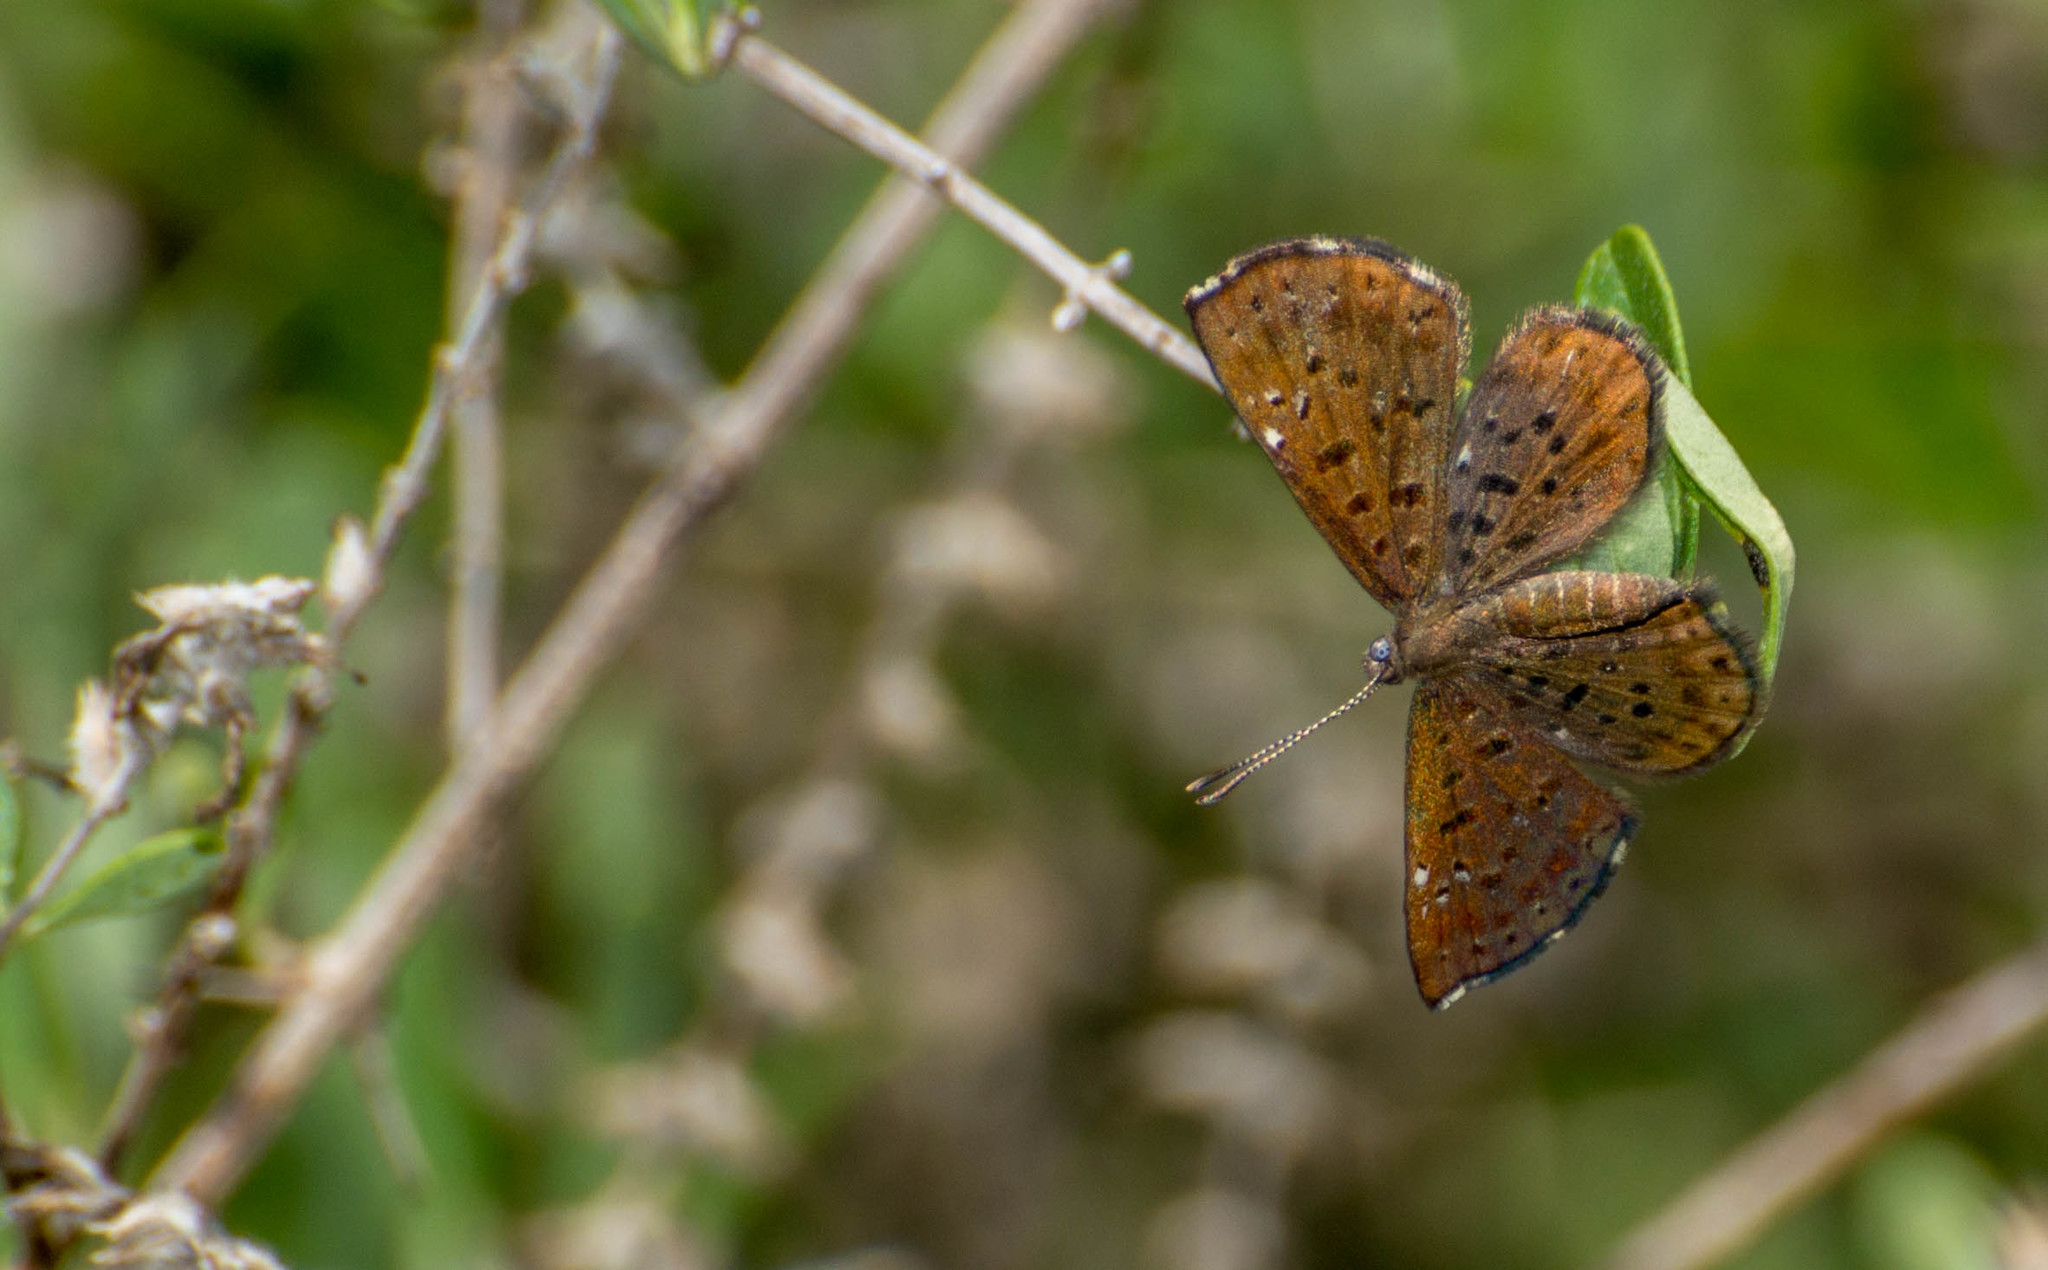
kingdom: Animalia
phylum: Arthropoda
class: Insecta
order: Lepidoptera
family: Riodinidae
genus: Teenie
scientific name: Teenie tinea
